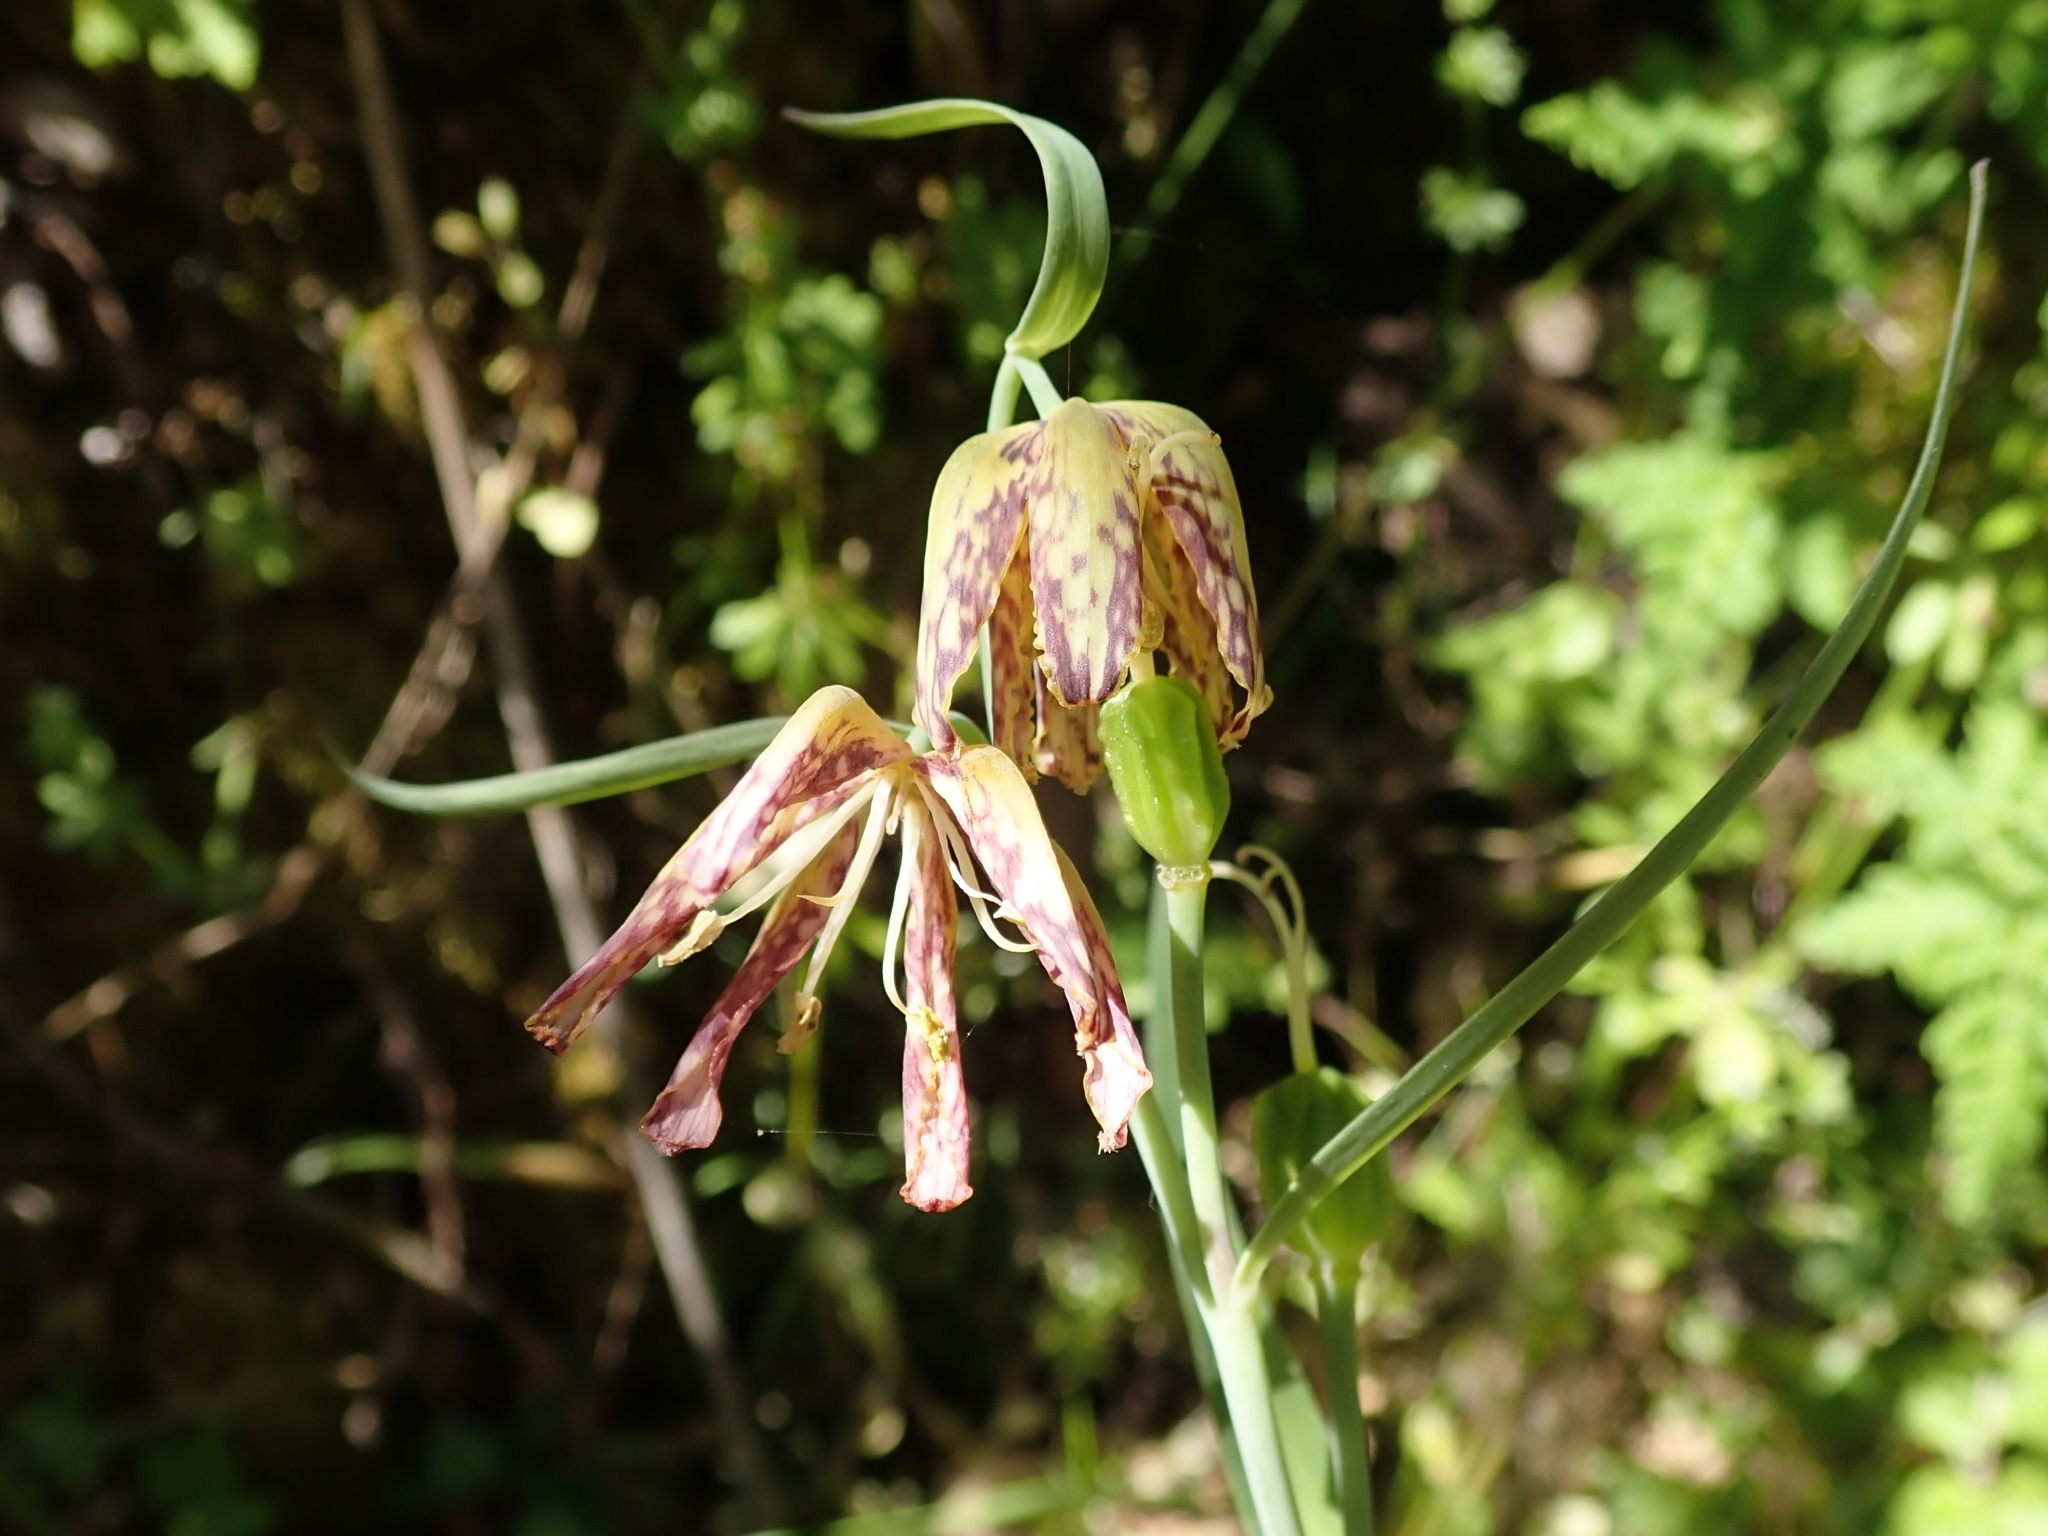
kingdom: Plantae
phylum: Tracheophyta
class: Liliopsida
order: Liliales
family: Liliaceae
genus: Fritillaria
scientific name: Fritillaria affinis
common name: Ojai fritillary
